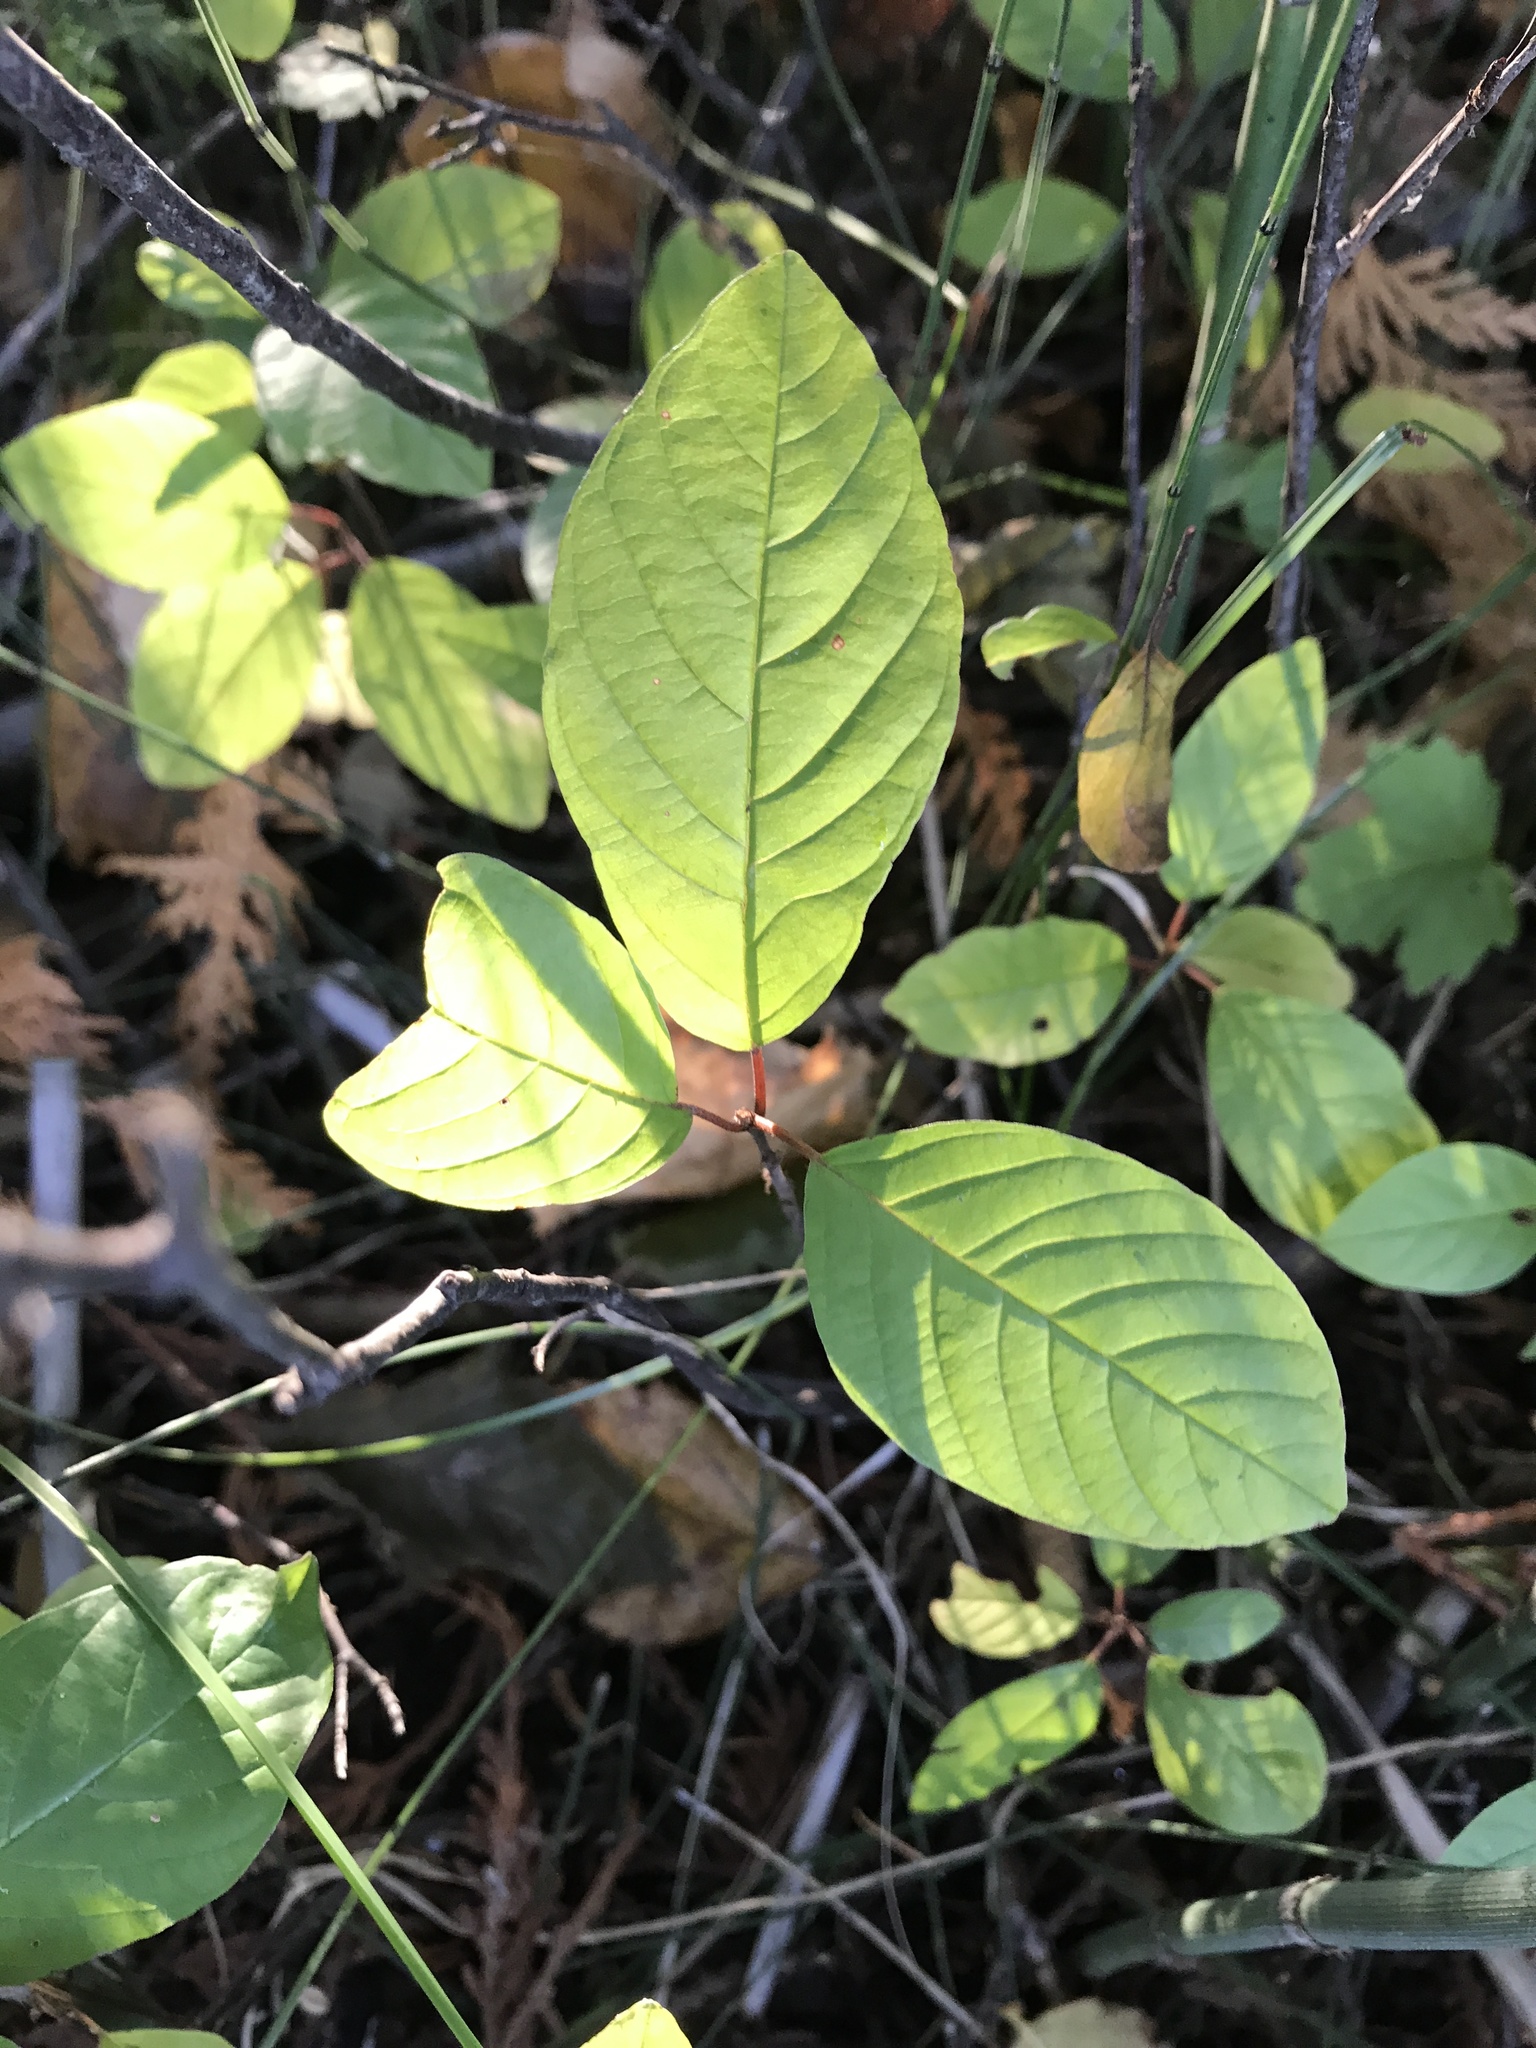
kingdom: Plantae
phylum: Tracheophyta
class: Magnoliopsida
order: Rosales
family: Rhamnaceae
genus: Frangula
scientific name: Frangula alnus
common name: Alder buckthorn
